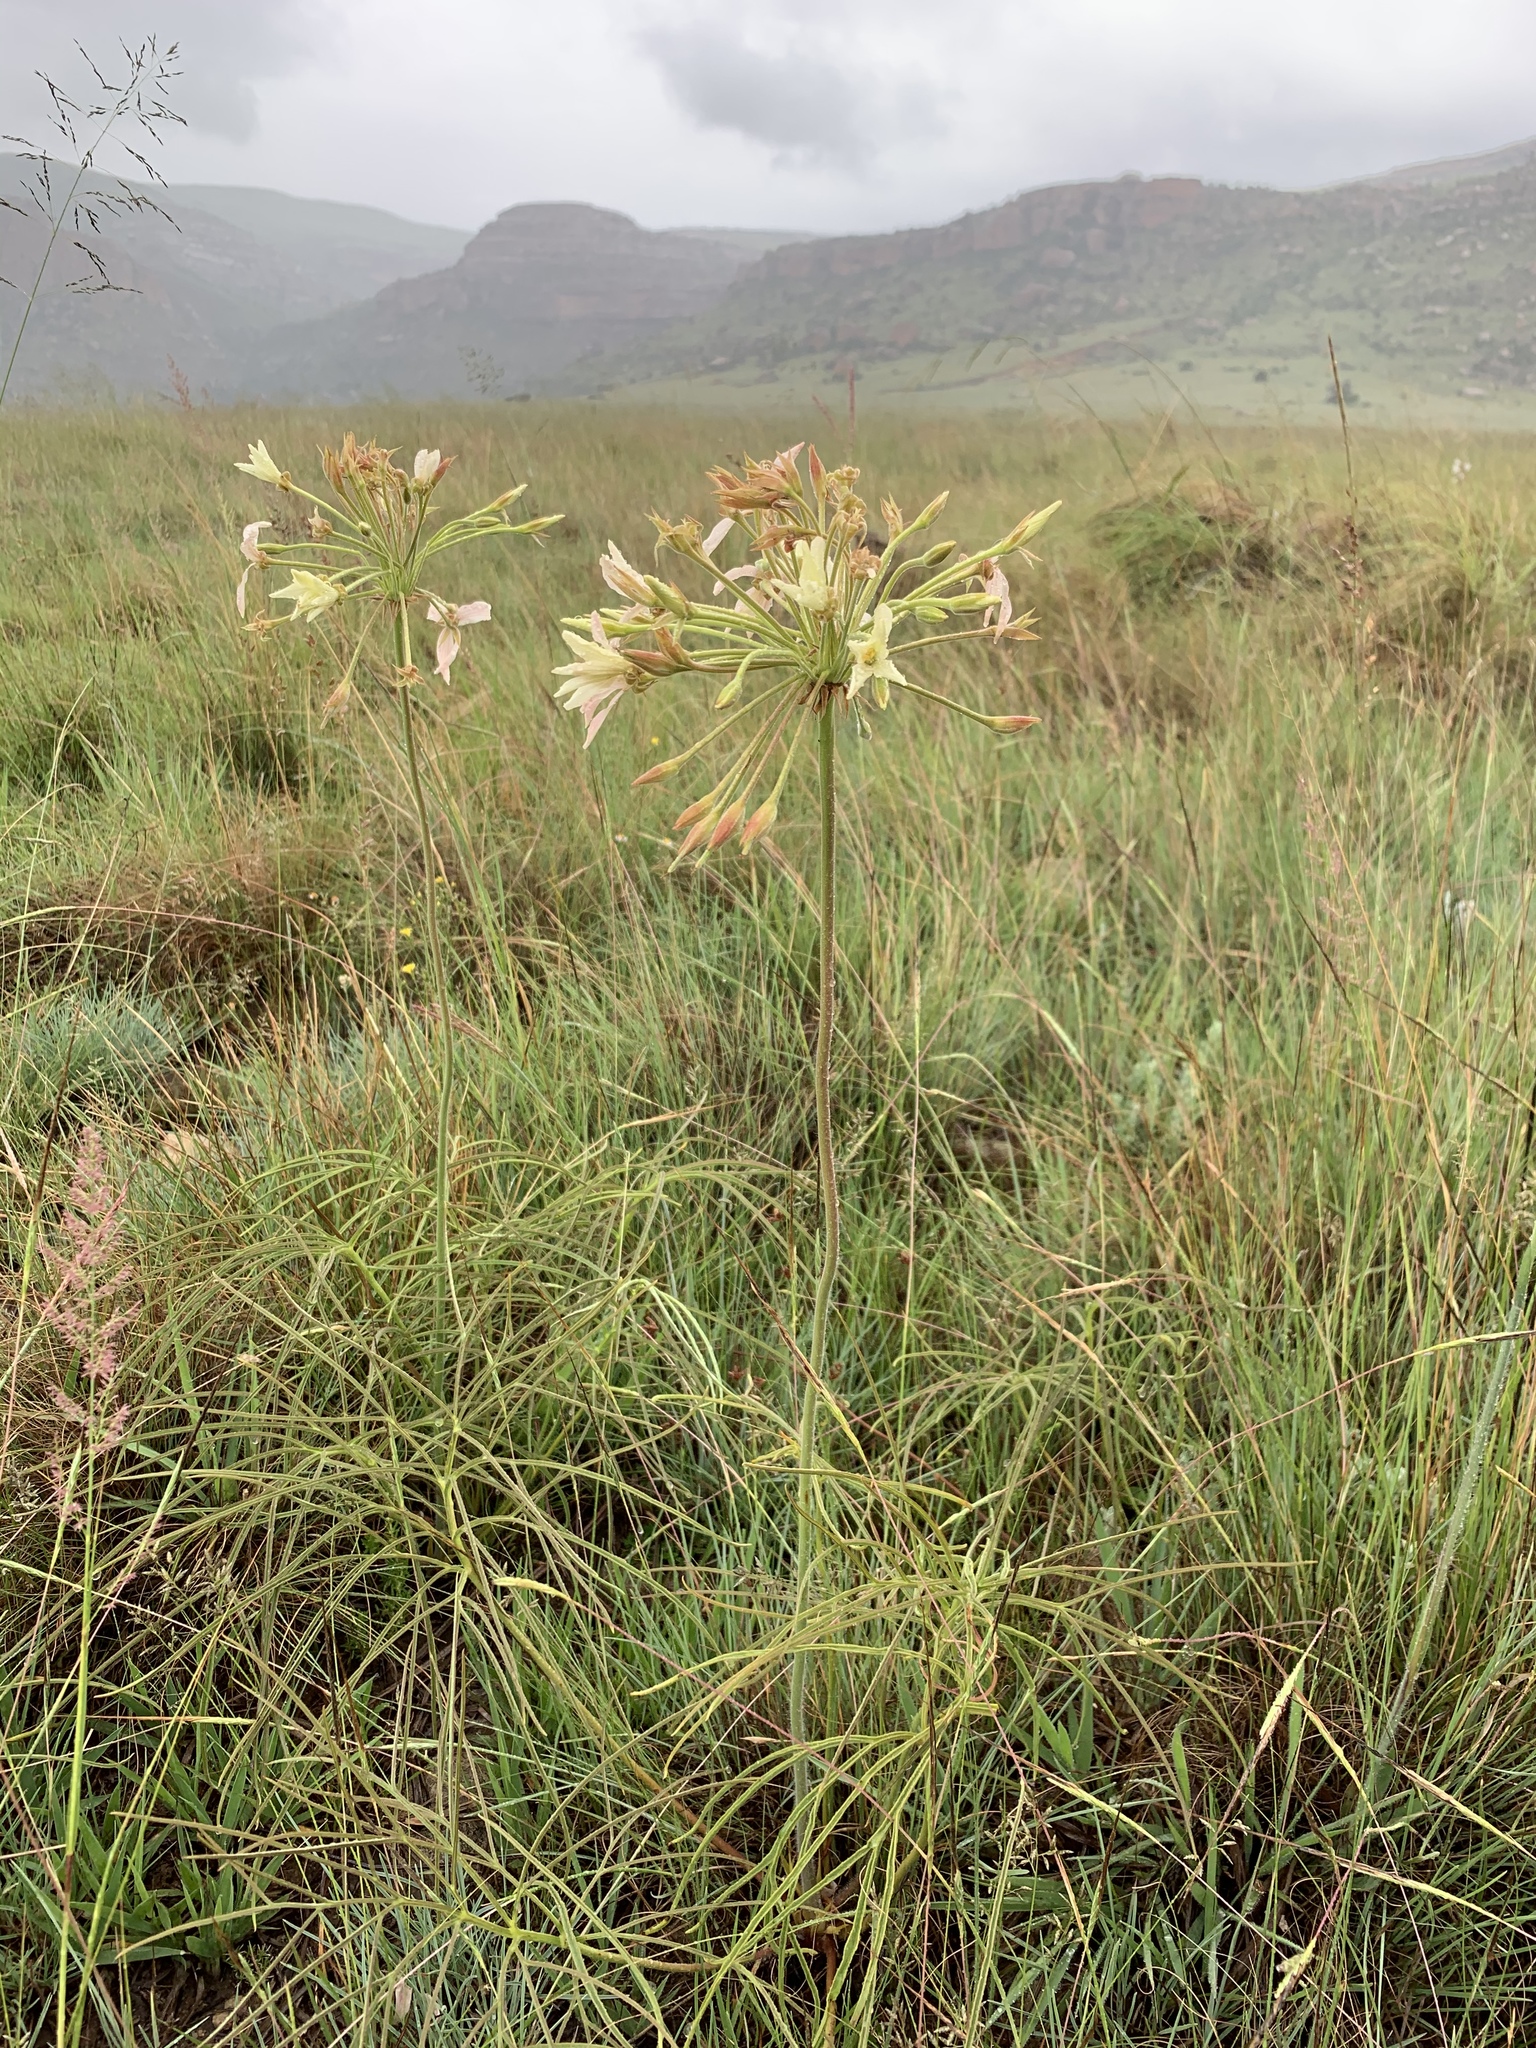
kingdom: Plantae
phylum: Tracheophyta
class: Magnoliopsida
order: Geraniales
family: Geraniaceae
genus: Pelargonium
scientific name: Pelargonium luridum
